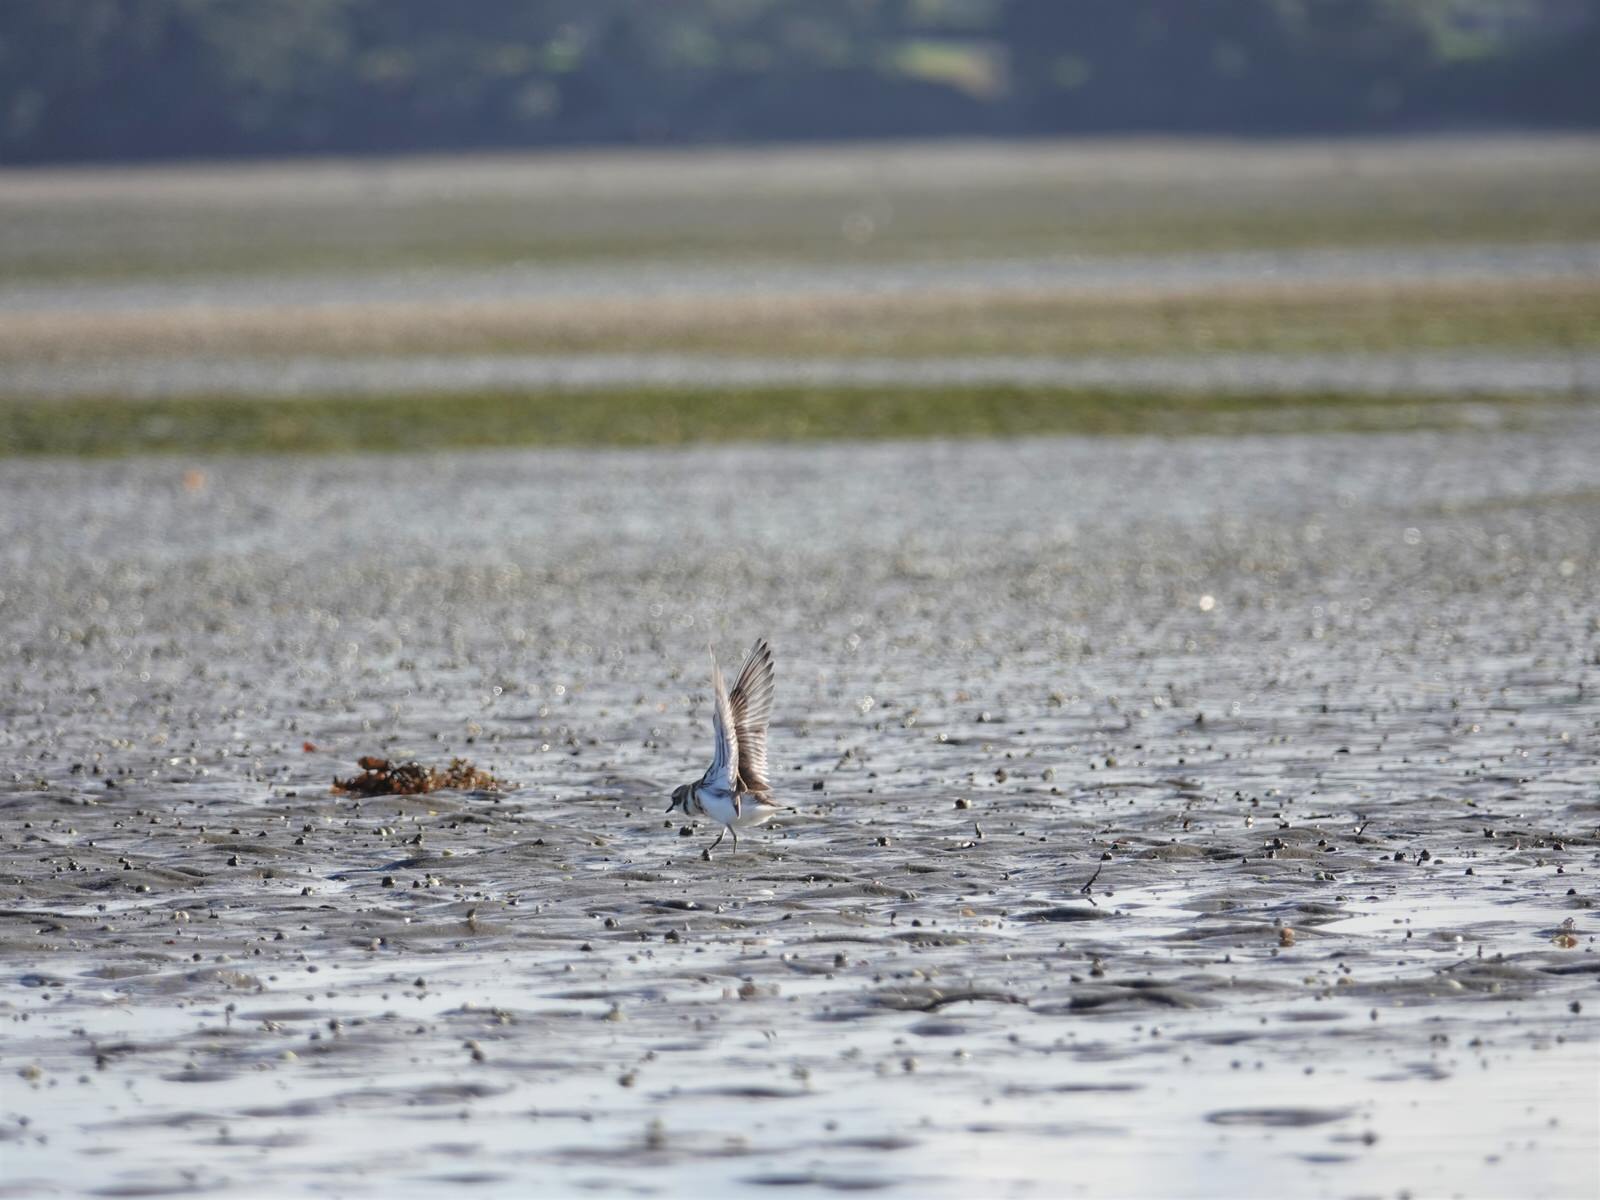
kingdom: Animalia
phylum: Chordata
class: Aves
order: Charadriiformes
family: Charadriidae
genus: Anarhynchus
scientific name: Anarhynchus
